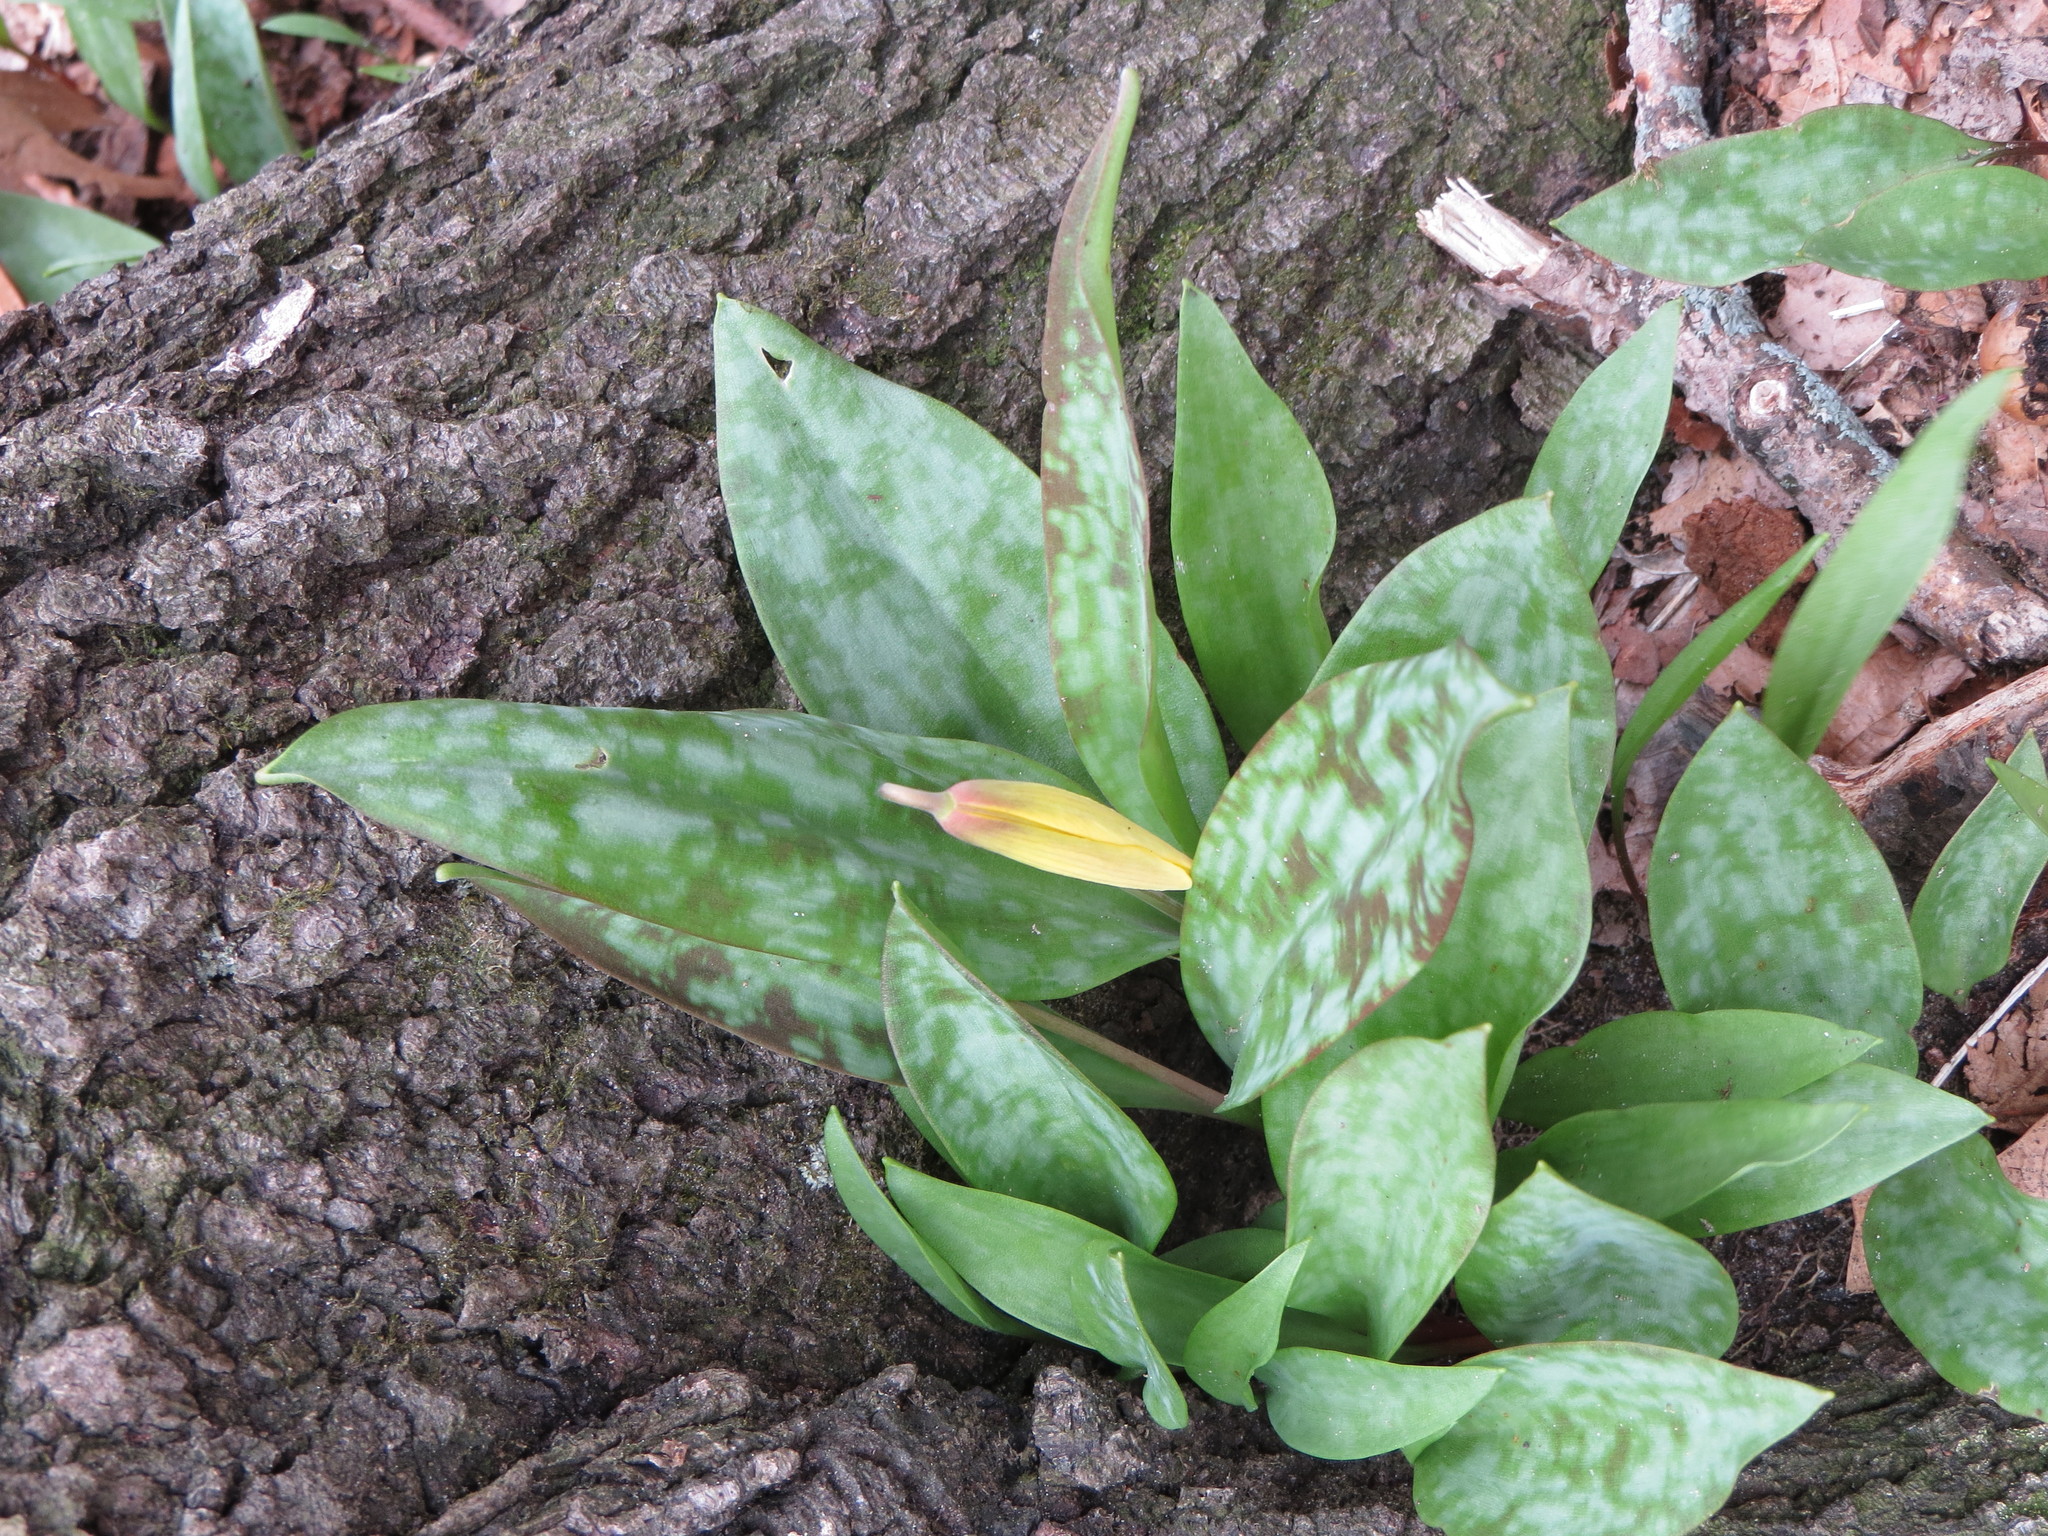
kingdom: Plantae
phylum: Tracheophyta
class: Liliopsida
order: Liliales
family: Liliaceae
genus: Erythronium
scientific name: Erythronium americanum
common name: Yellow adder's-tongue
